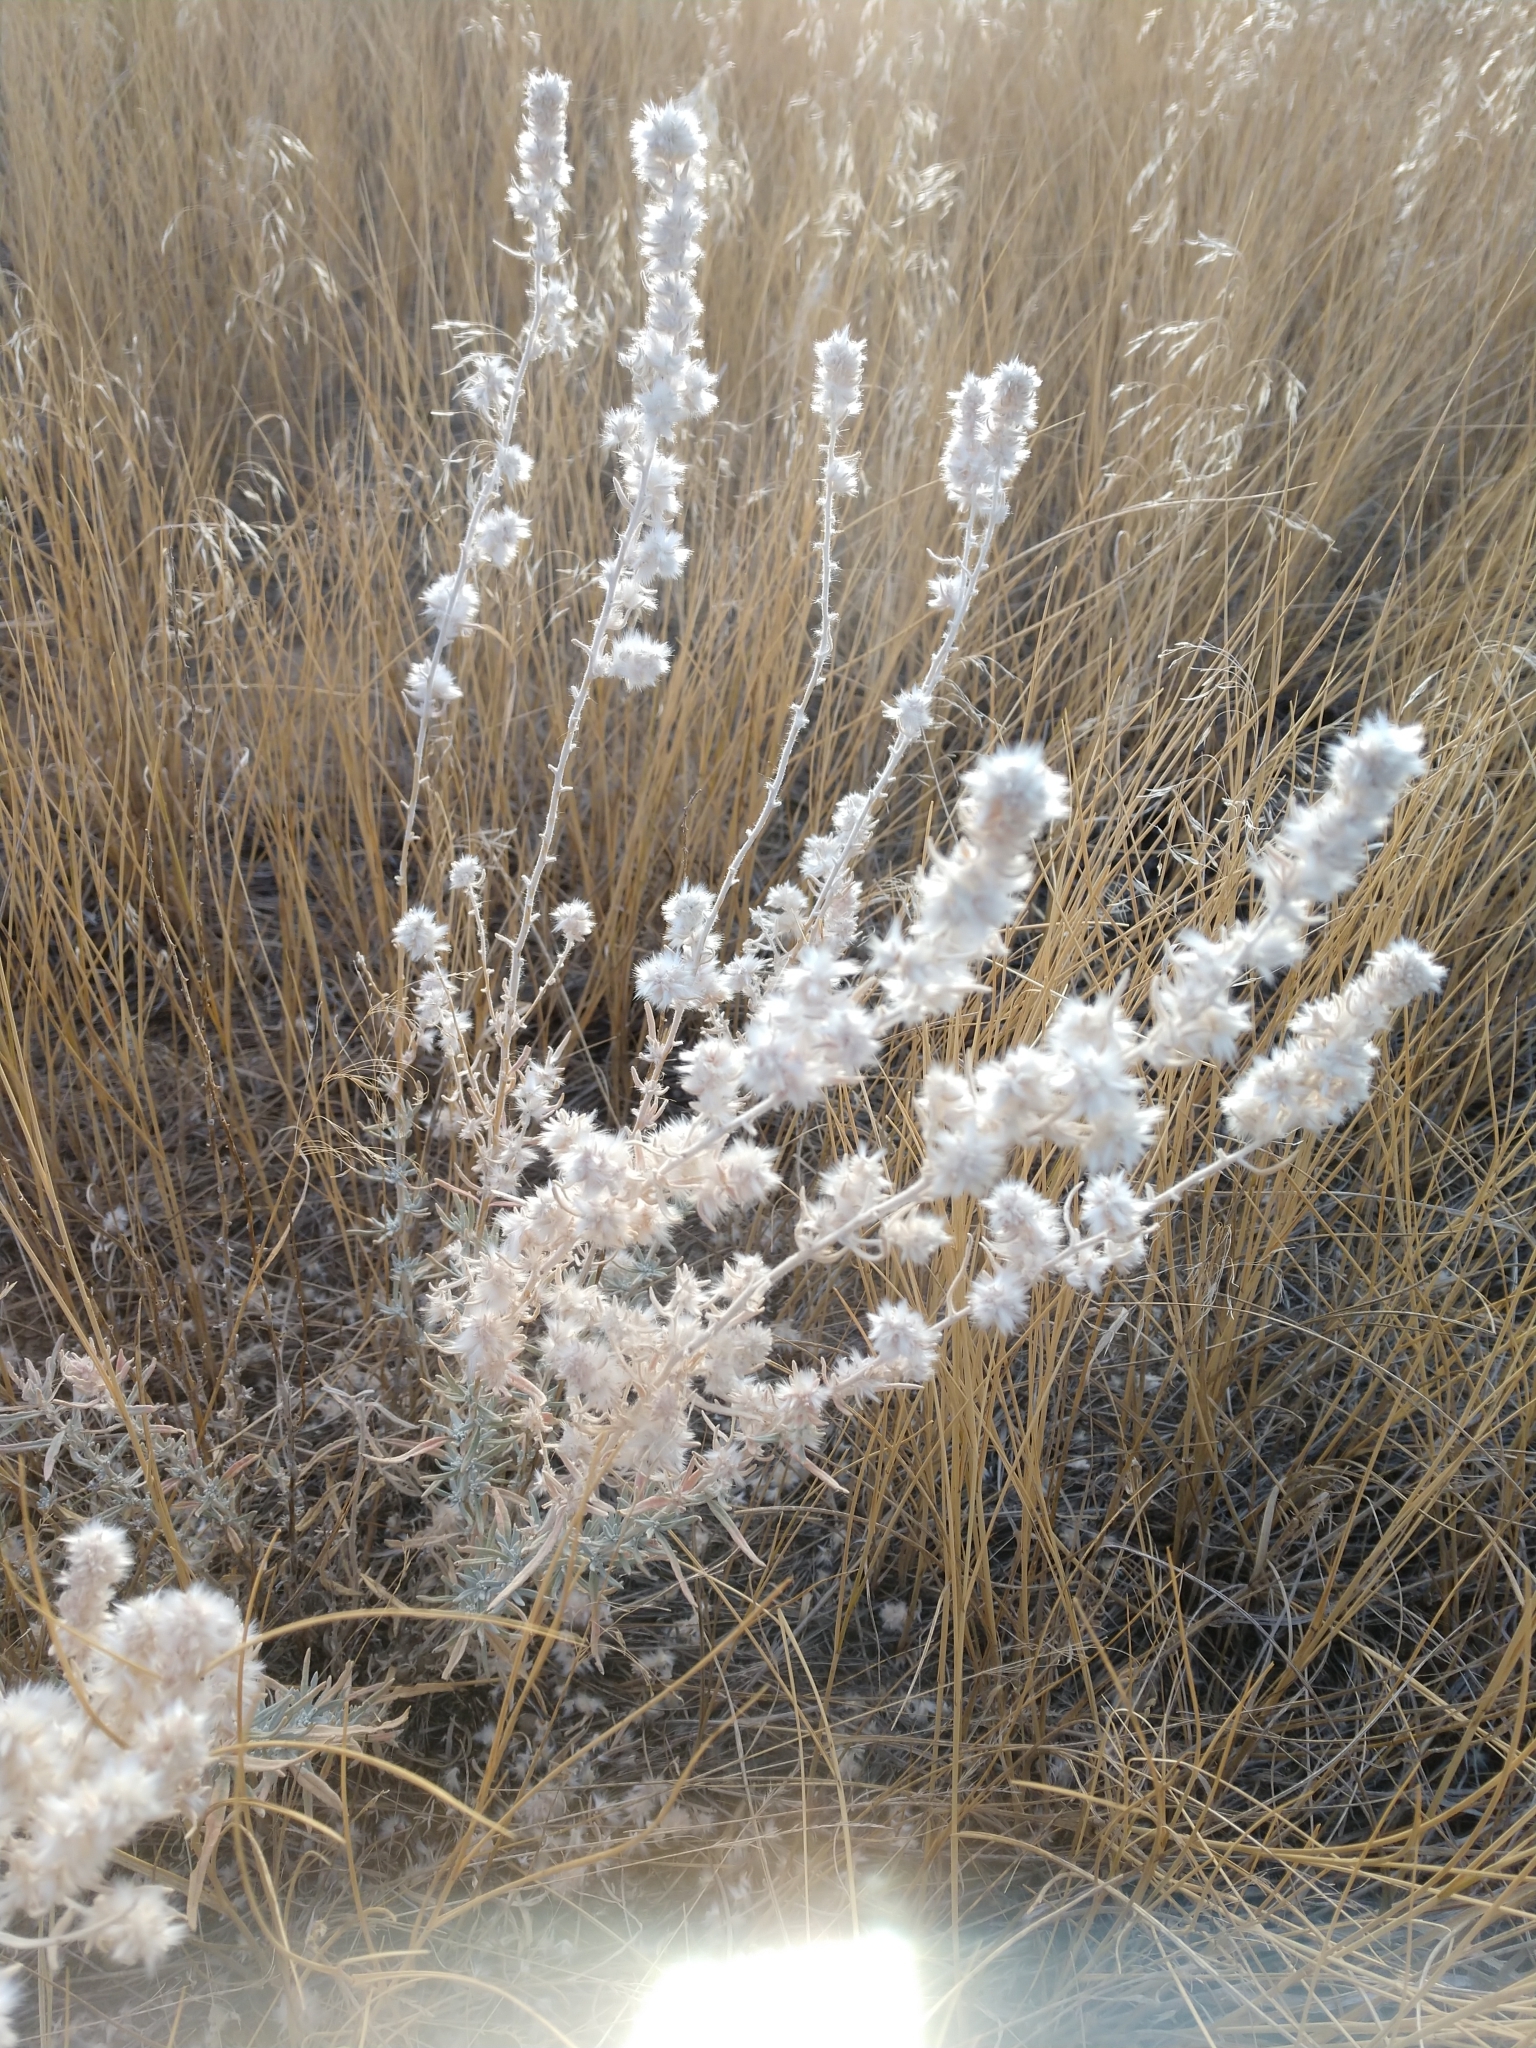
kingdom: Plantae
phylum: Tracheophyta
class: Magnoliopsida
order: Caryophyllales
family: Amaranthaceae
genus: Krascheninnikovia
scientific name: Krascheninnikovia lanata
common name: Winterfat
